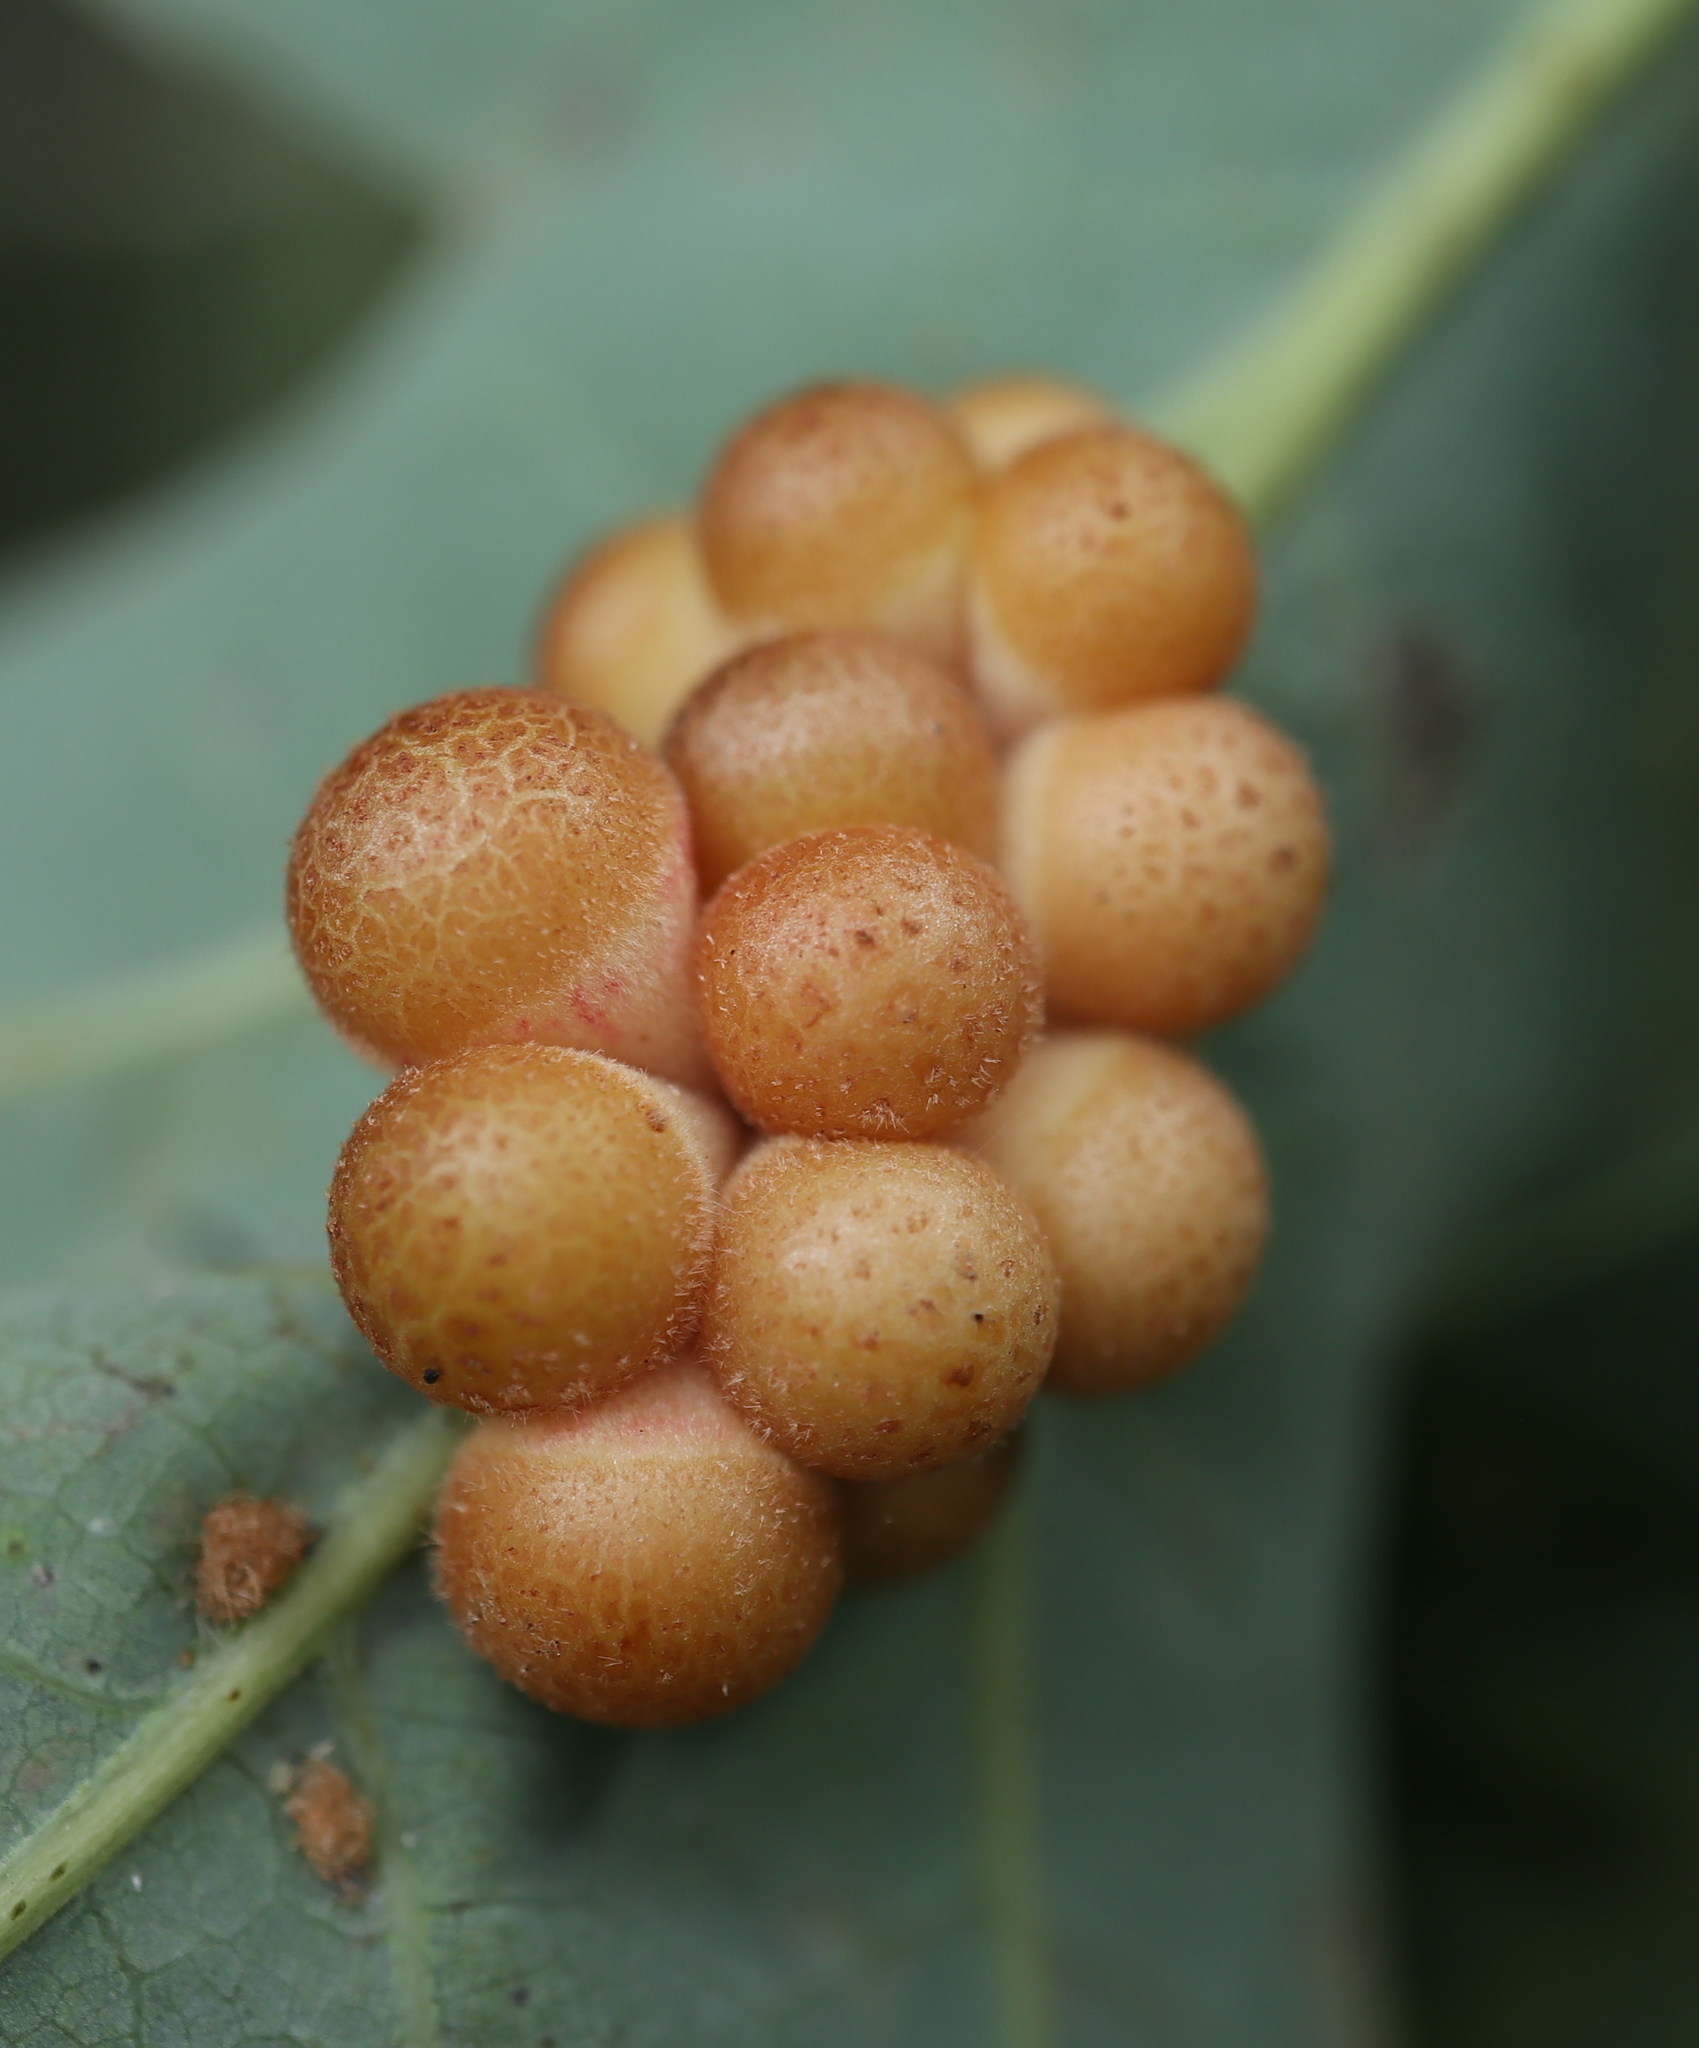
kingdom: Animalia
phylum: Arthropoda
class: Insecta
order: Hymenoptera
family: Cynipidae
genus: Andricus
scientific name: Andricus
